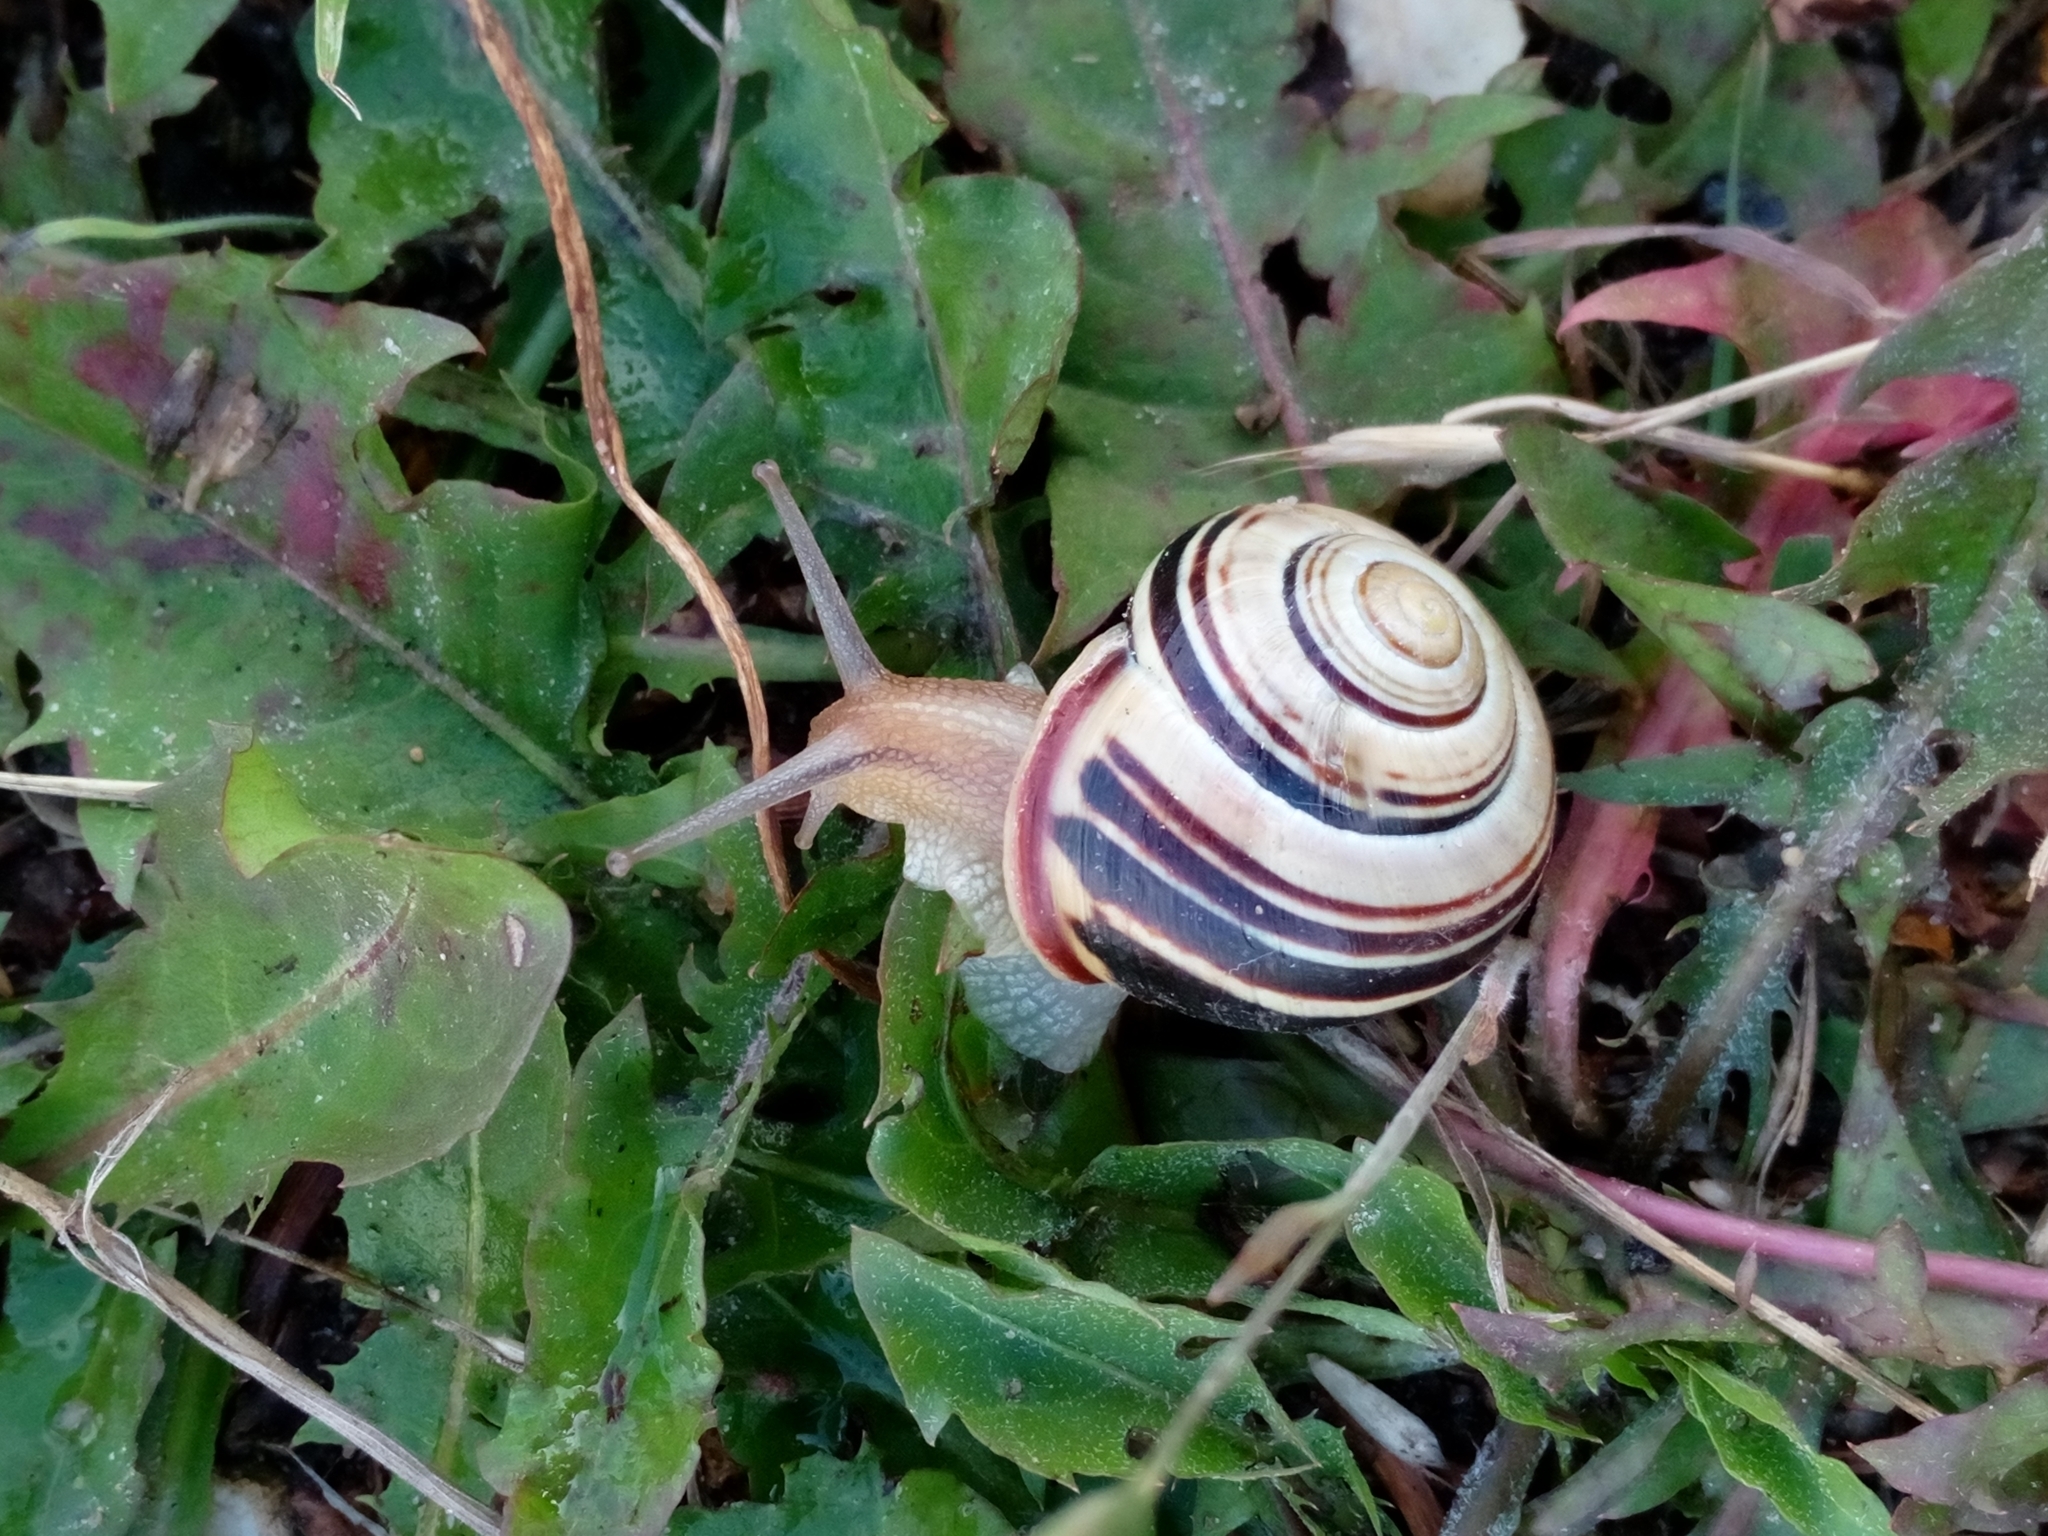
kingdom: Animalia
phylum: Mollusca
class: Gastropoda
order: Stylommatophora
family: Helicidae
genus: Cepaea
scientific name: Cepaea nemoralis
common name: Grovesnail
